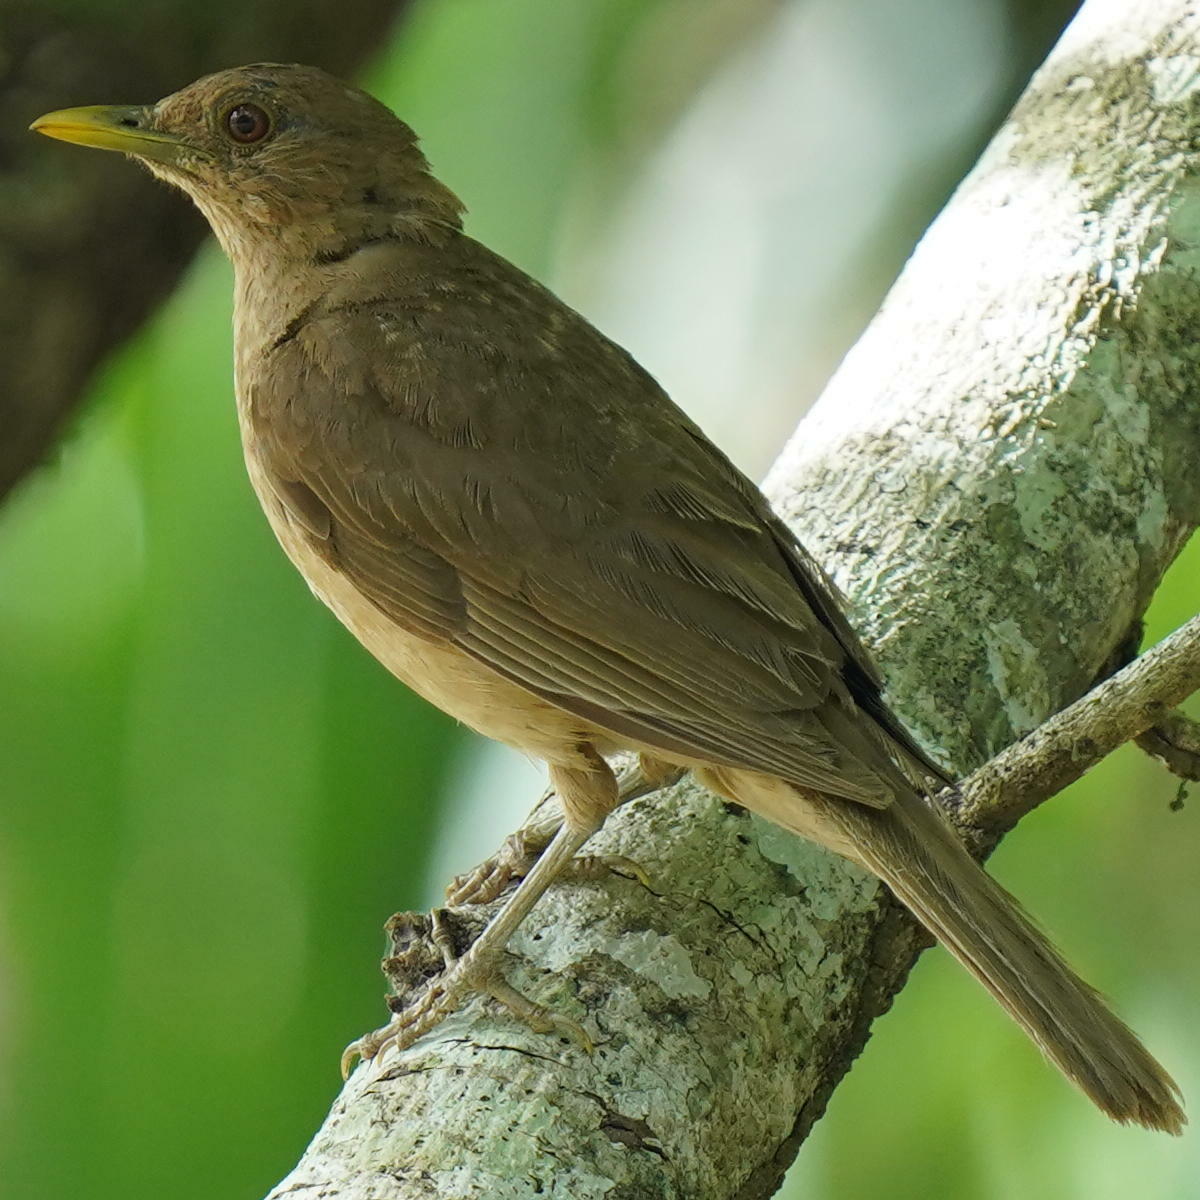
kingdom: Animalia
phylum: Chordata
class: Aves
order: Passeriformes
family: Turdidae
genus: Turdus
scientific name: Turdus grayi
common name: Clay-colored thrush
